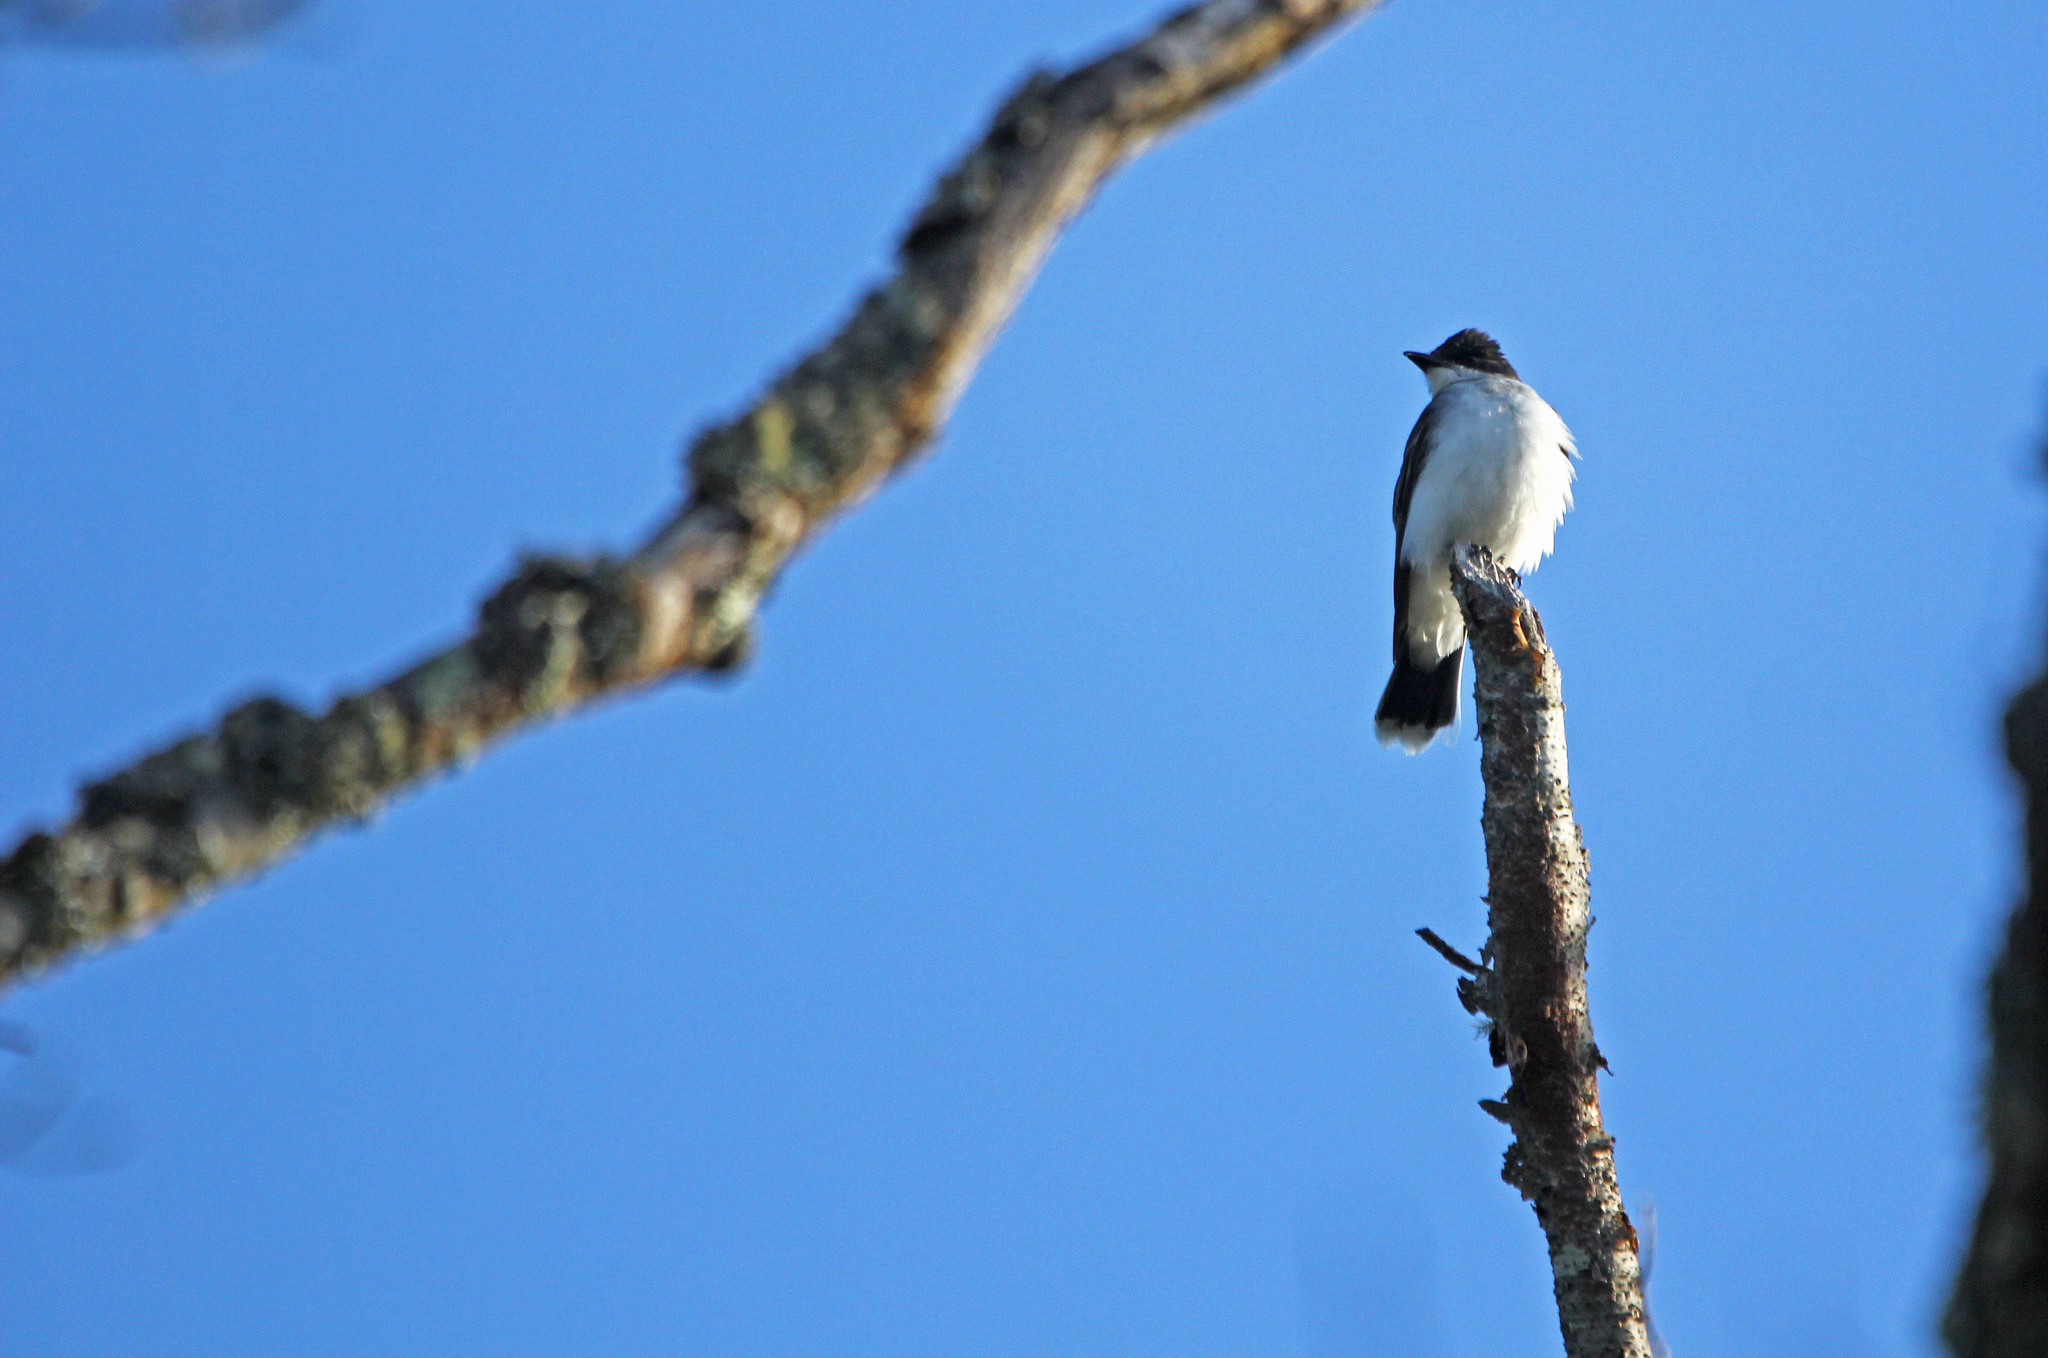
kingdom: Animalia
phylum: Chordata
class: Aves
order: Passeriformes
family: Tyrannidae
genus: Tyrannus
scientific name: Tyrannus tyrannus
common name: Eastern kingbird
